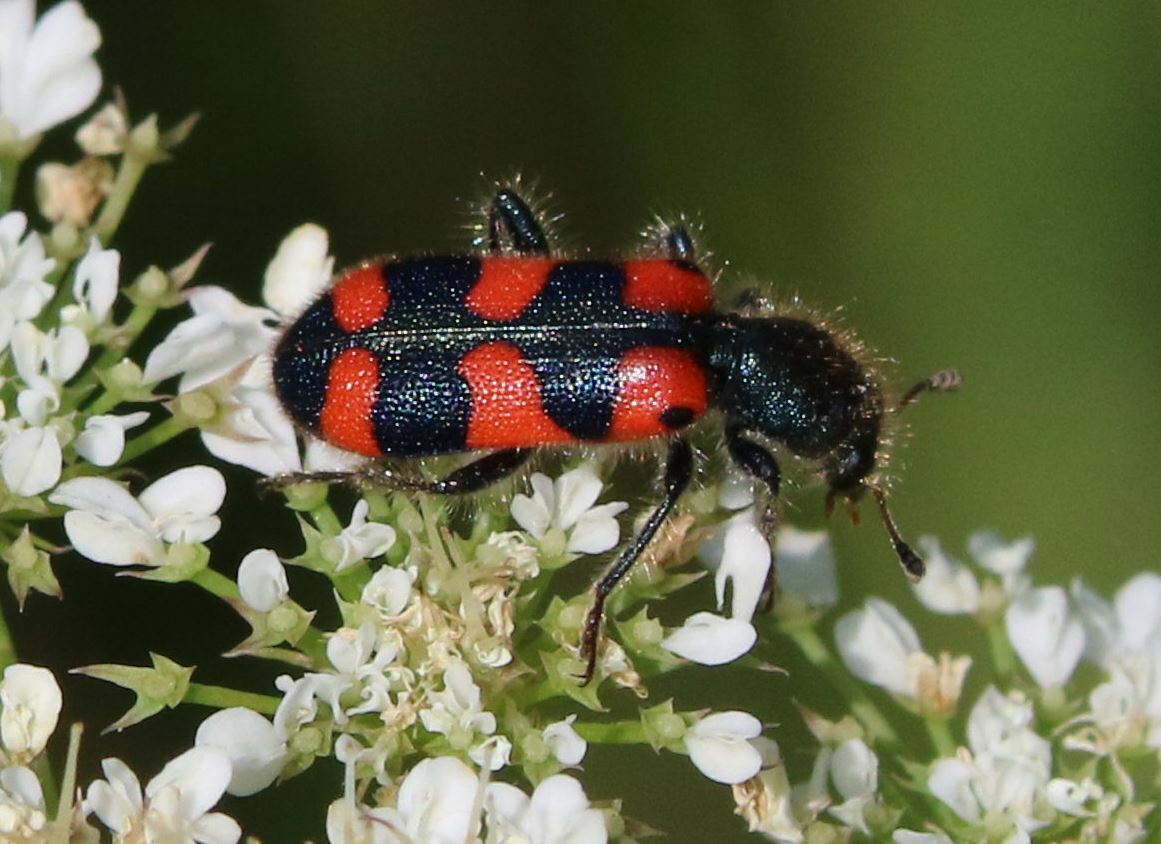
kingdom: Animalia
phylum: Arthropoda
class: Insecta
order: Coleoptera
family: Cleridae
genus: Trichodes
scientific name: Trichodes leucopsideus
